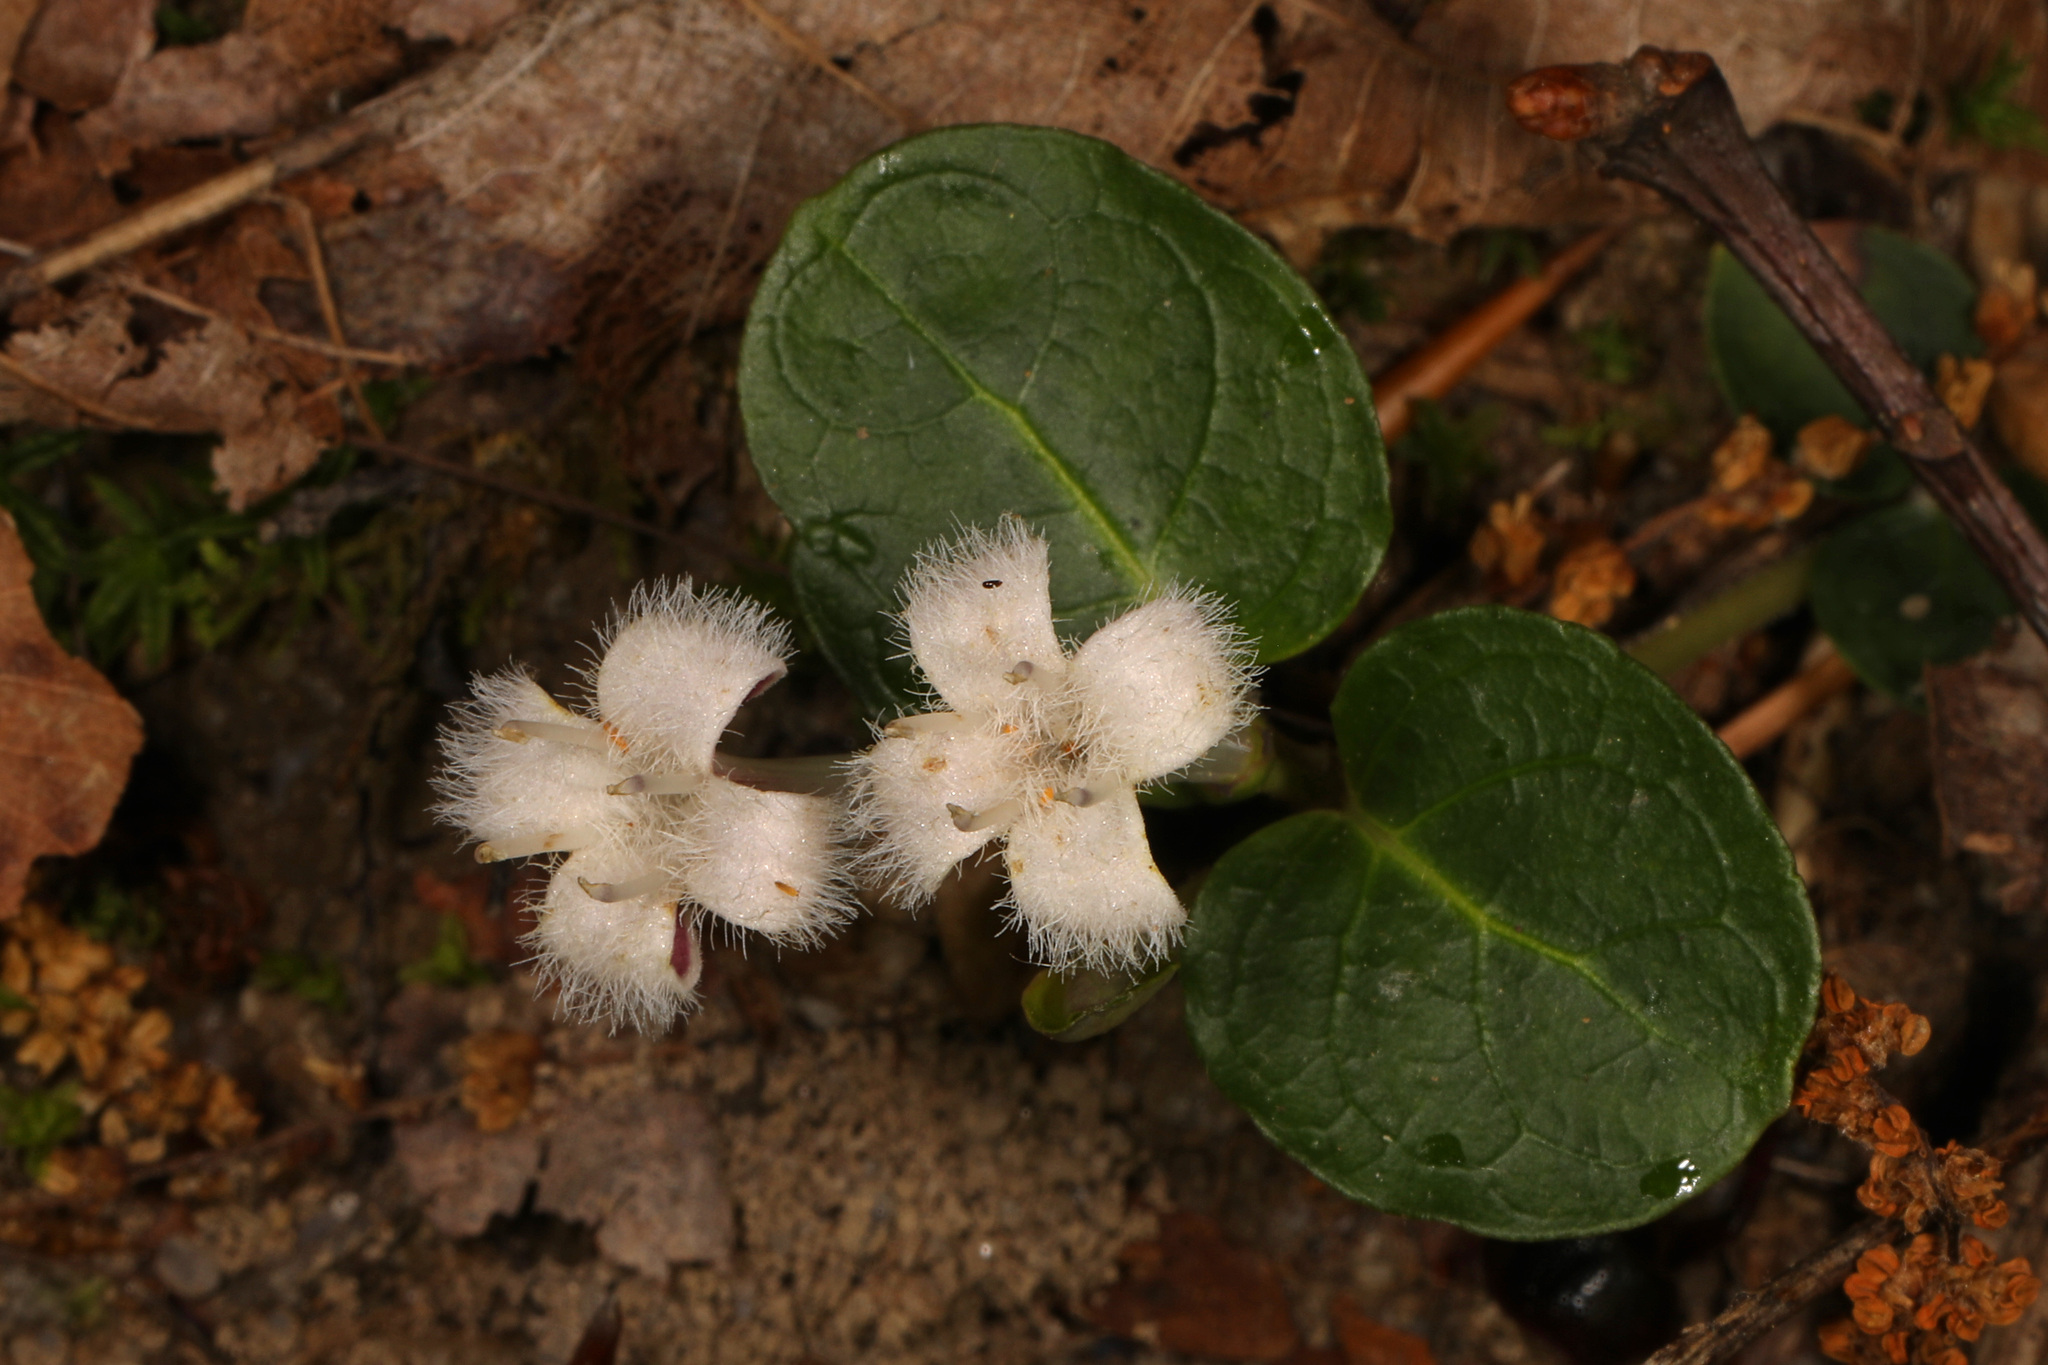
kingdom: Plantae
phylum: Tracheophyta
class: Magnoliopsida
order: Gentianales
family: Rubiaceae
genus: Mitchella
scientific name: Mitchella repens
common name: Partridge-berry
